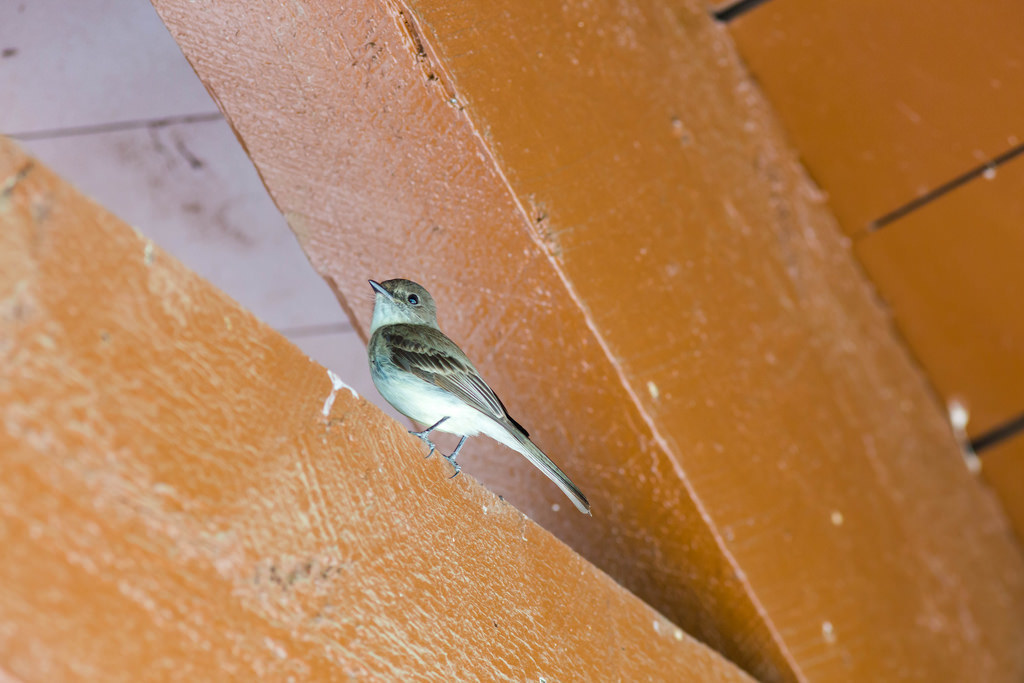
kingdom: Animalia
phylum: Chordata
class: Aves
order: Passeriformes
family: Tyrannidae
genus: Sayornis
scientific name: Sayornis phoebe
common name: Eastern phoebe
